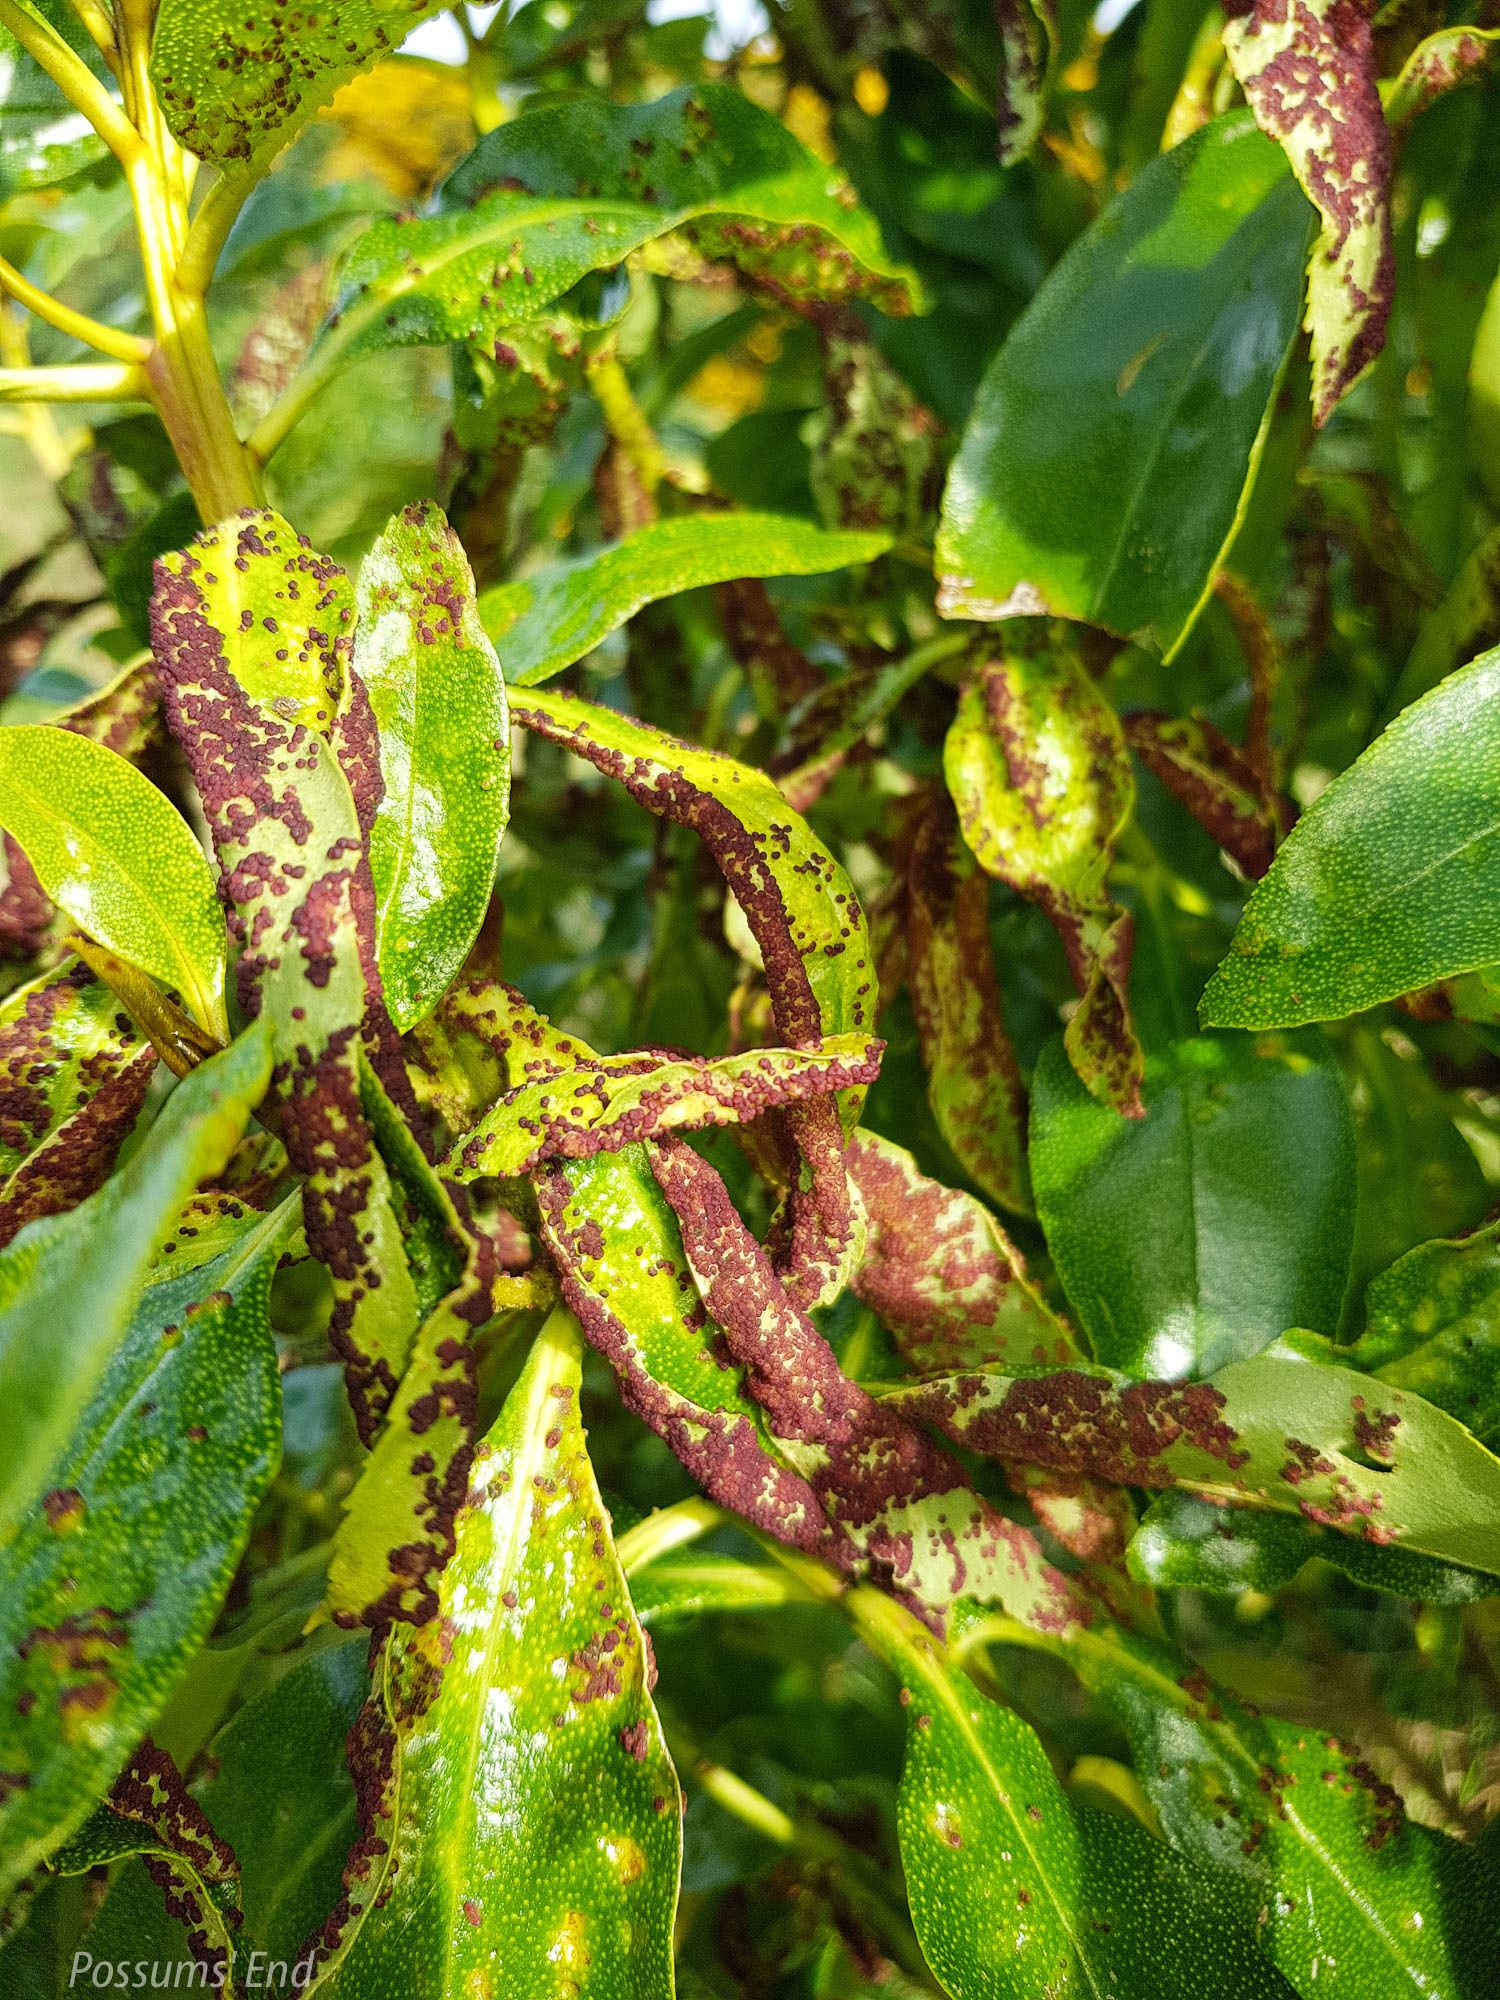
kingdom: Animalia
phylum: Arthropoda
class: Arachnida
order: Trombidiformes
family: Eriophyidae
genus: Aceria
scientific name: Aceria healyi
